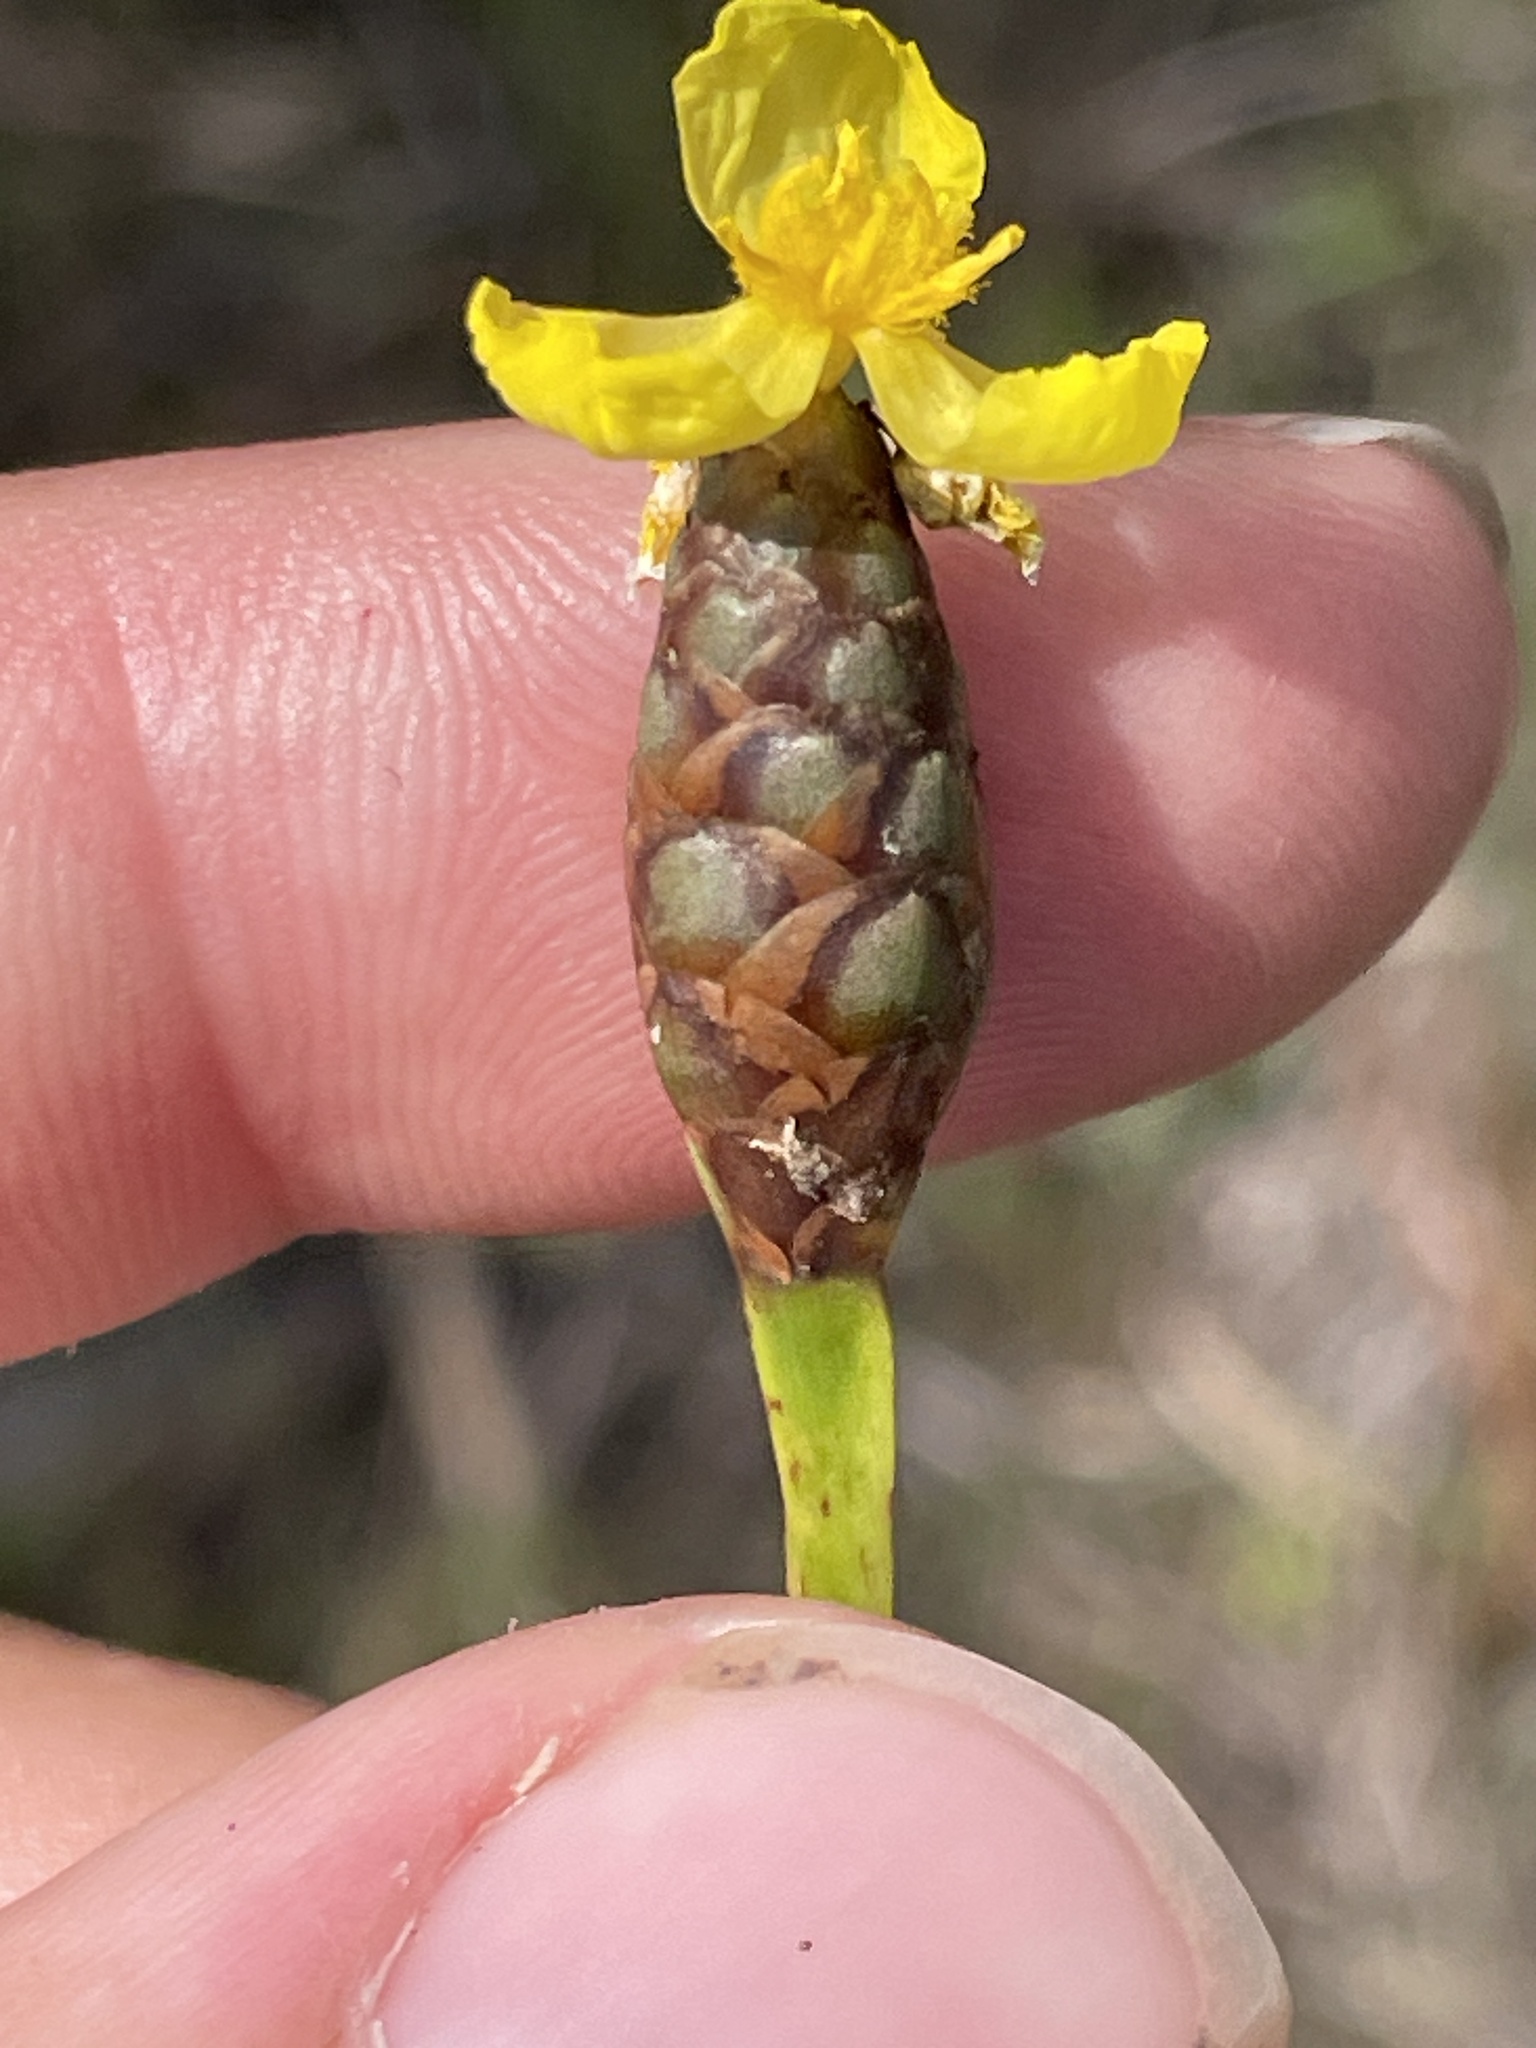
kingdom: Plantae
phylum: Tracheophyta
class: Liliopsida
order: Poales
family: Xyridaceae
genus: Xyris
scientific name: Xyris ambigua
